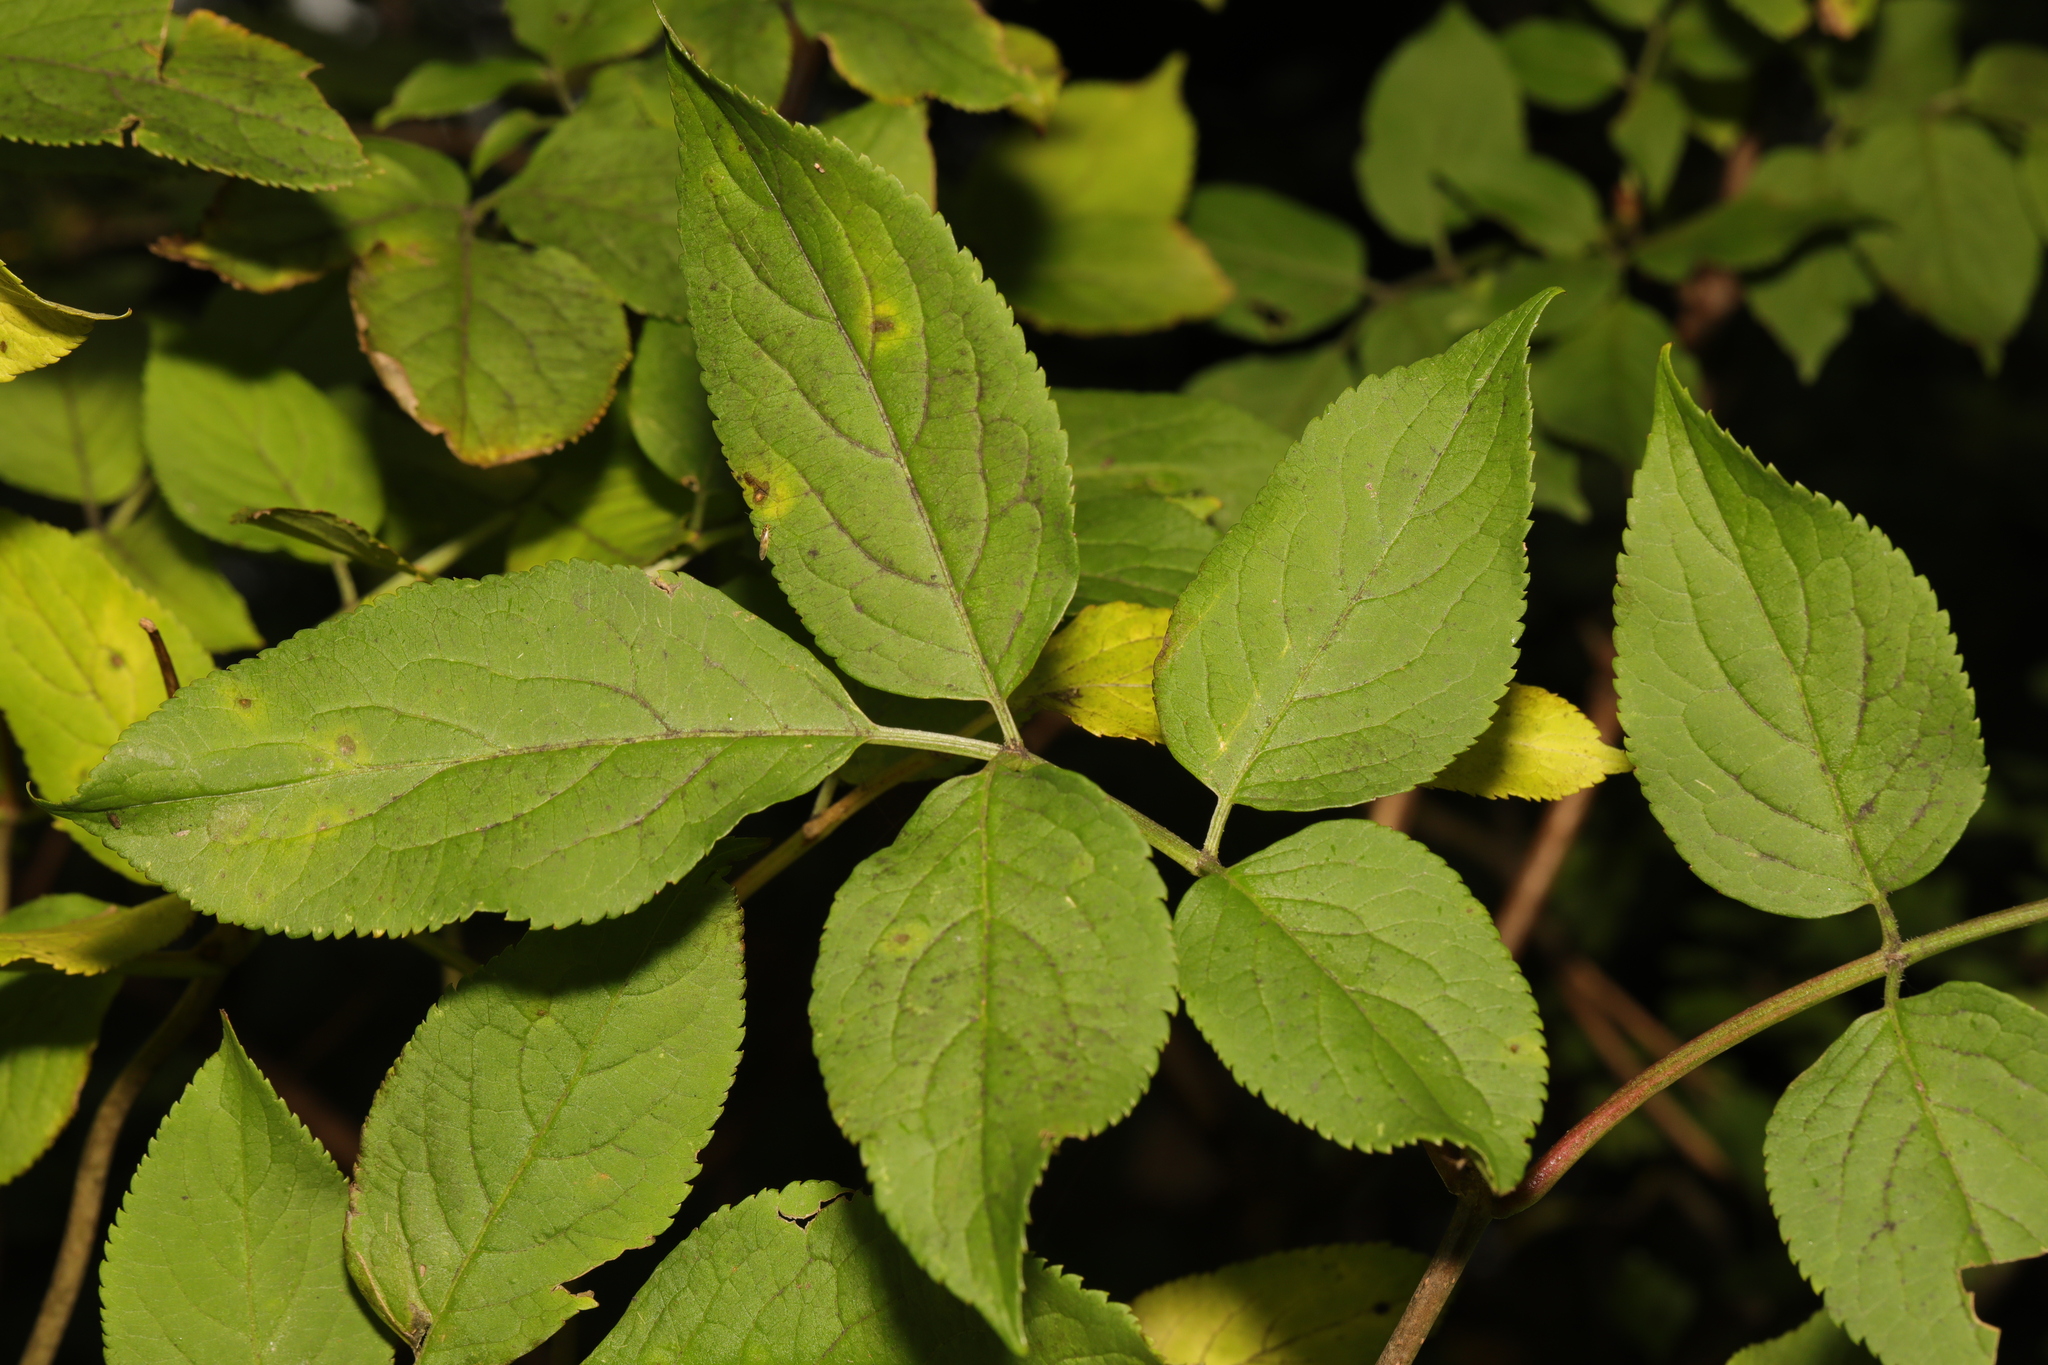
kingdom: Plantae
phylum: Tracheophyta
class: Magnoliopsida
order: Dipsacales
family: Viburnaceae
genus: Sambucus
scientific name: Sambucus nigra
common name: Elder
